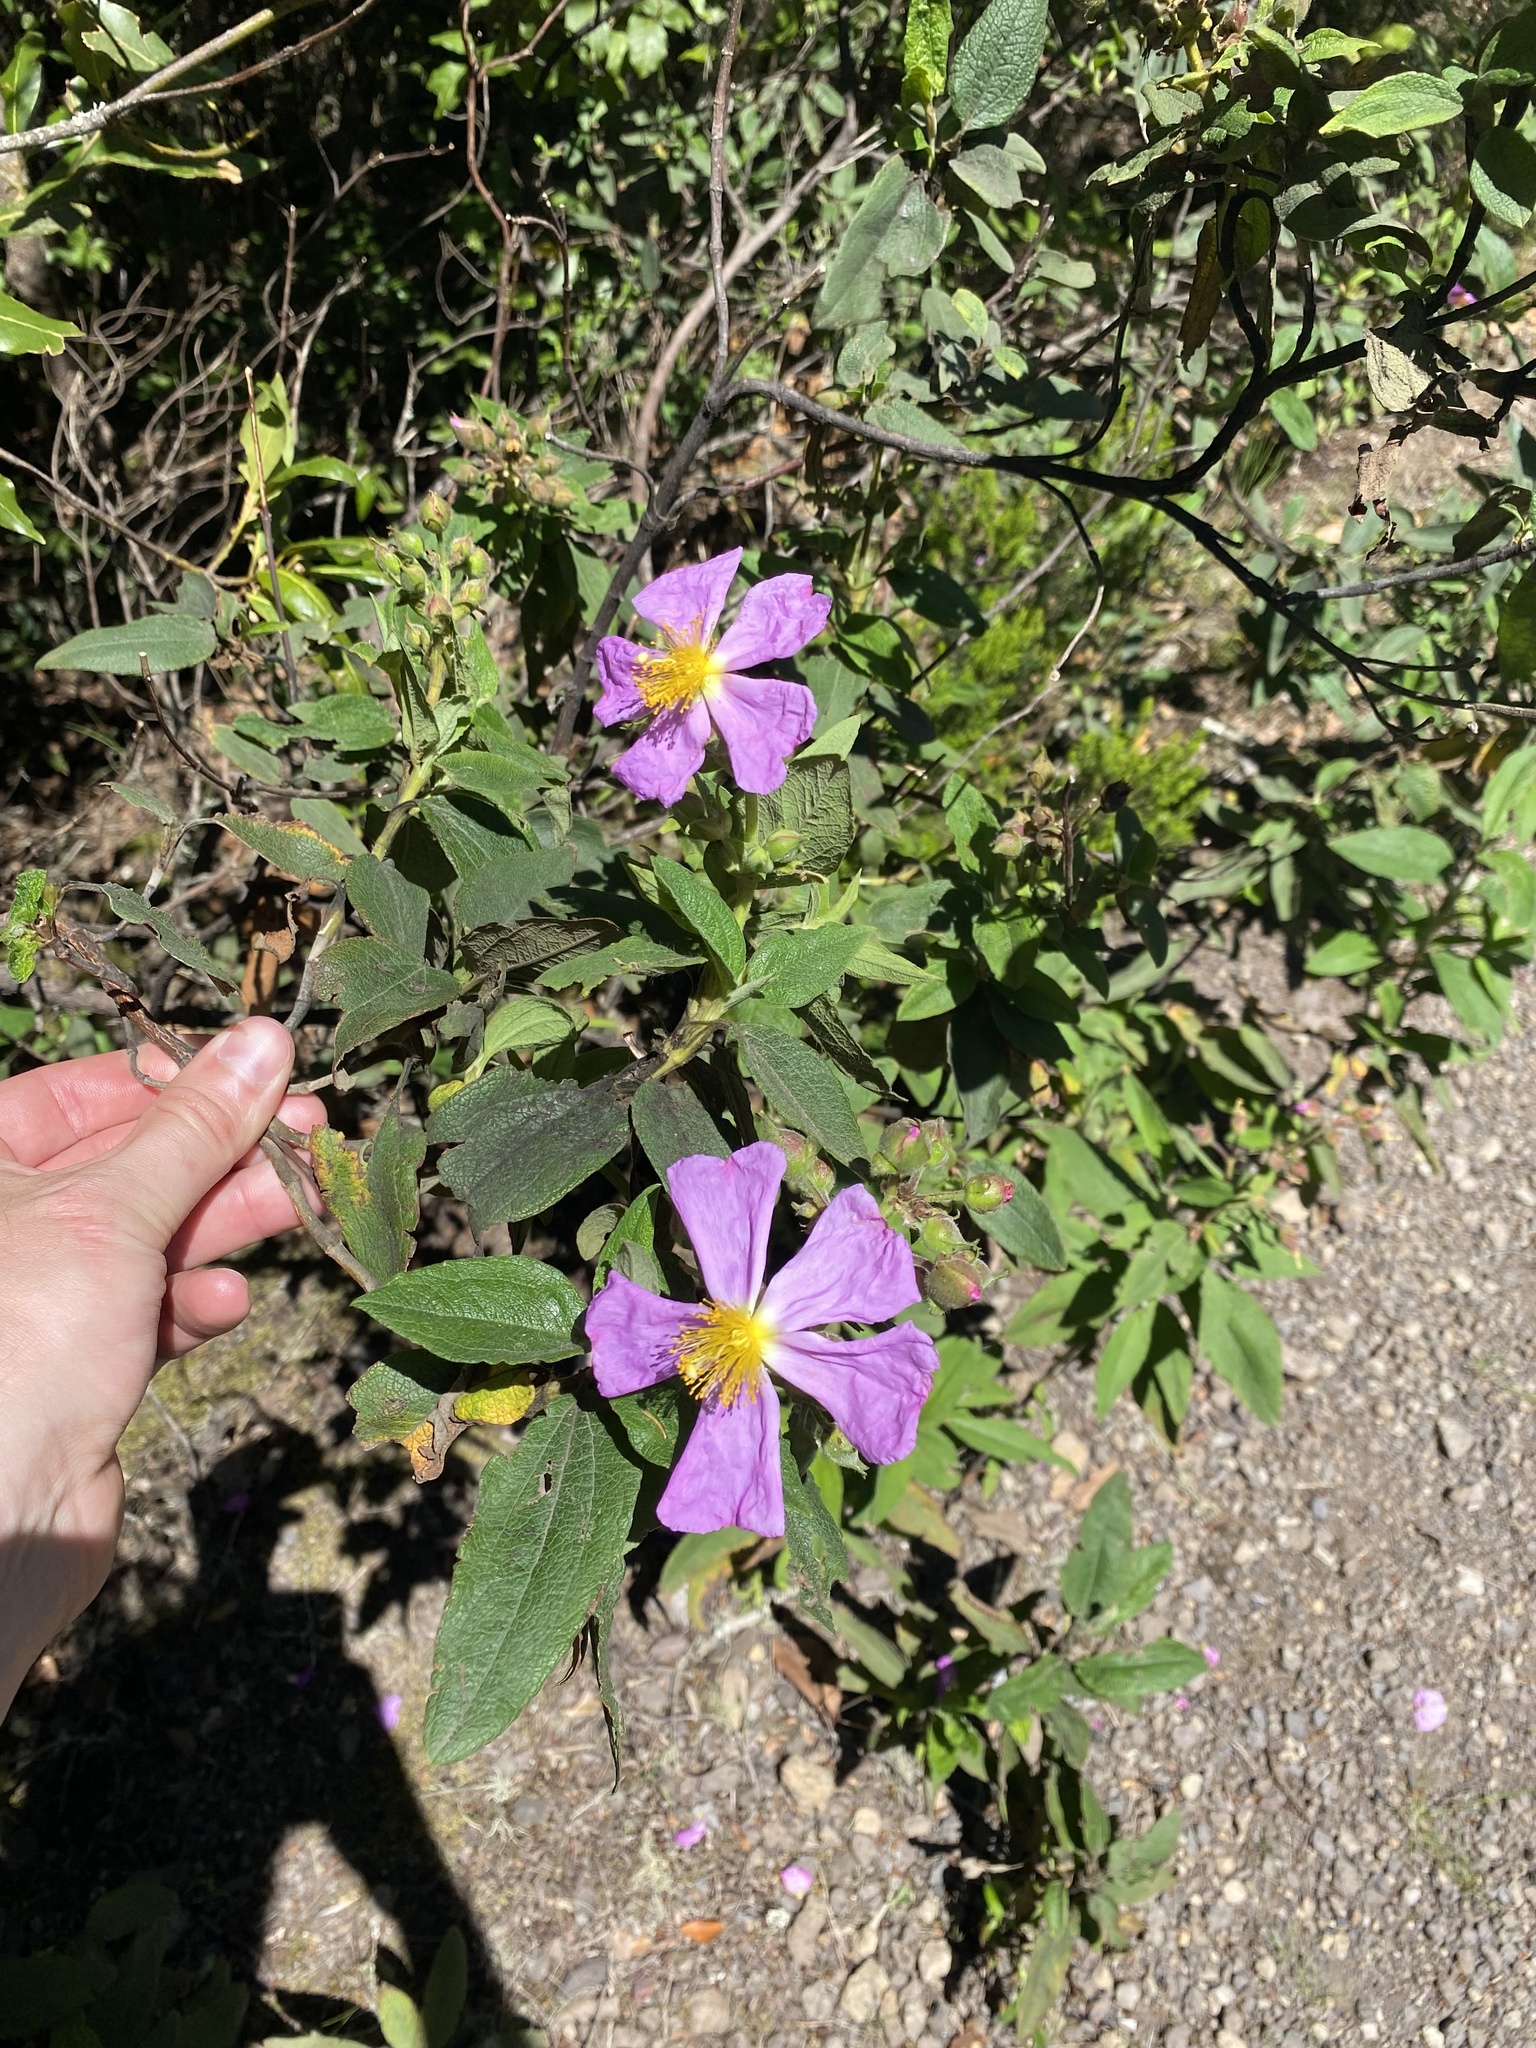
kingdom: Plantae
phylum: Tracheophyta
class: Magnoliopsida
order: Malvales
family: Cistaceae
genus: Cistus
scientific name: Cistus symphytifolius
